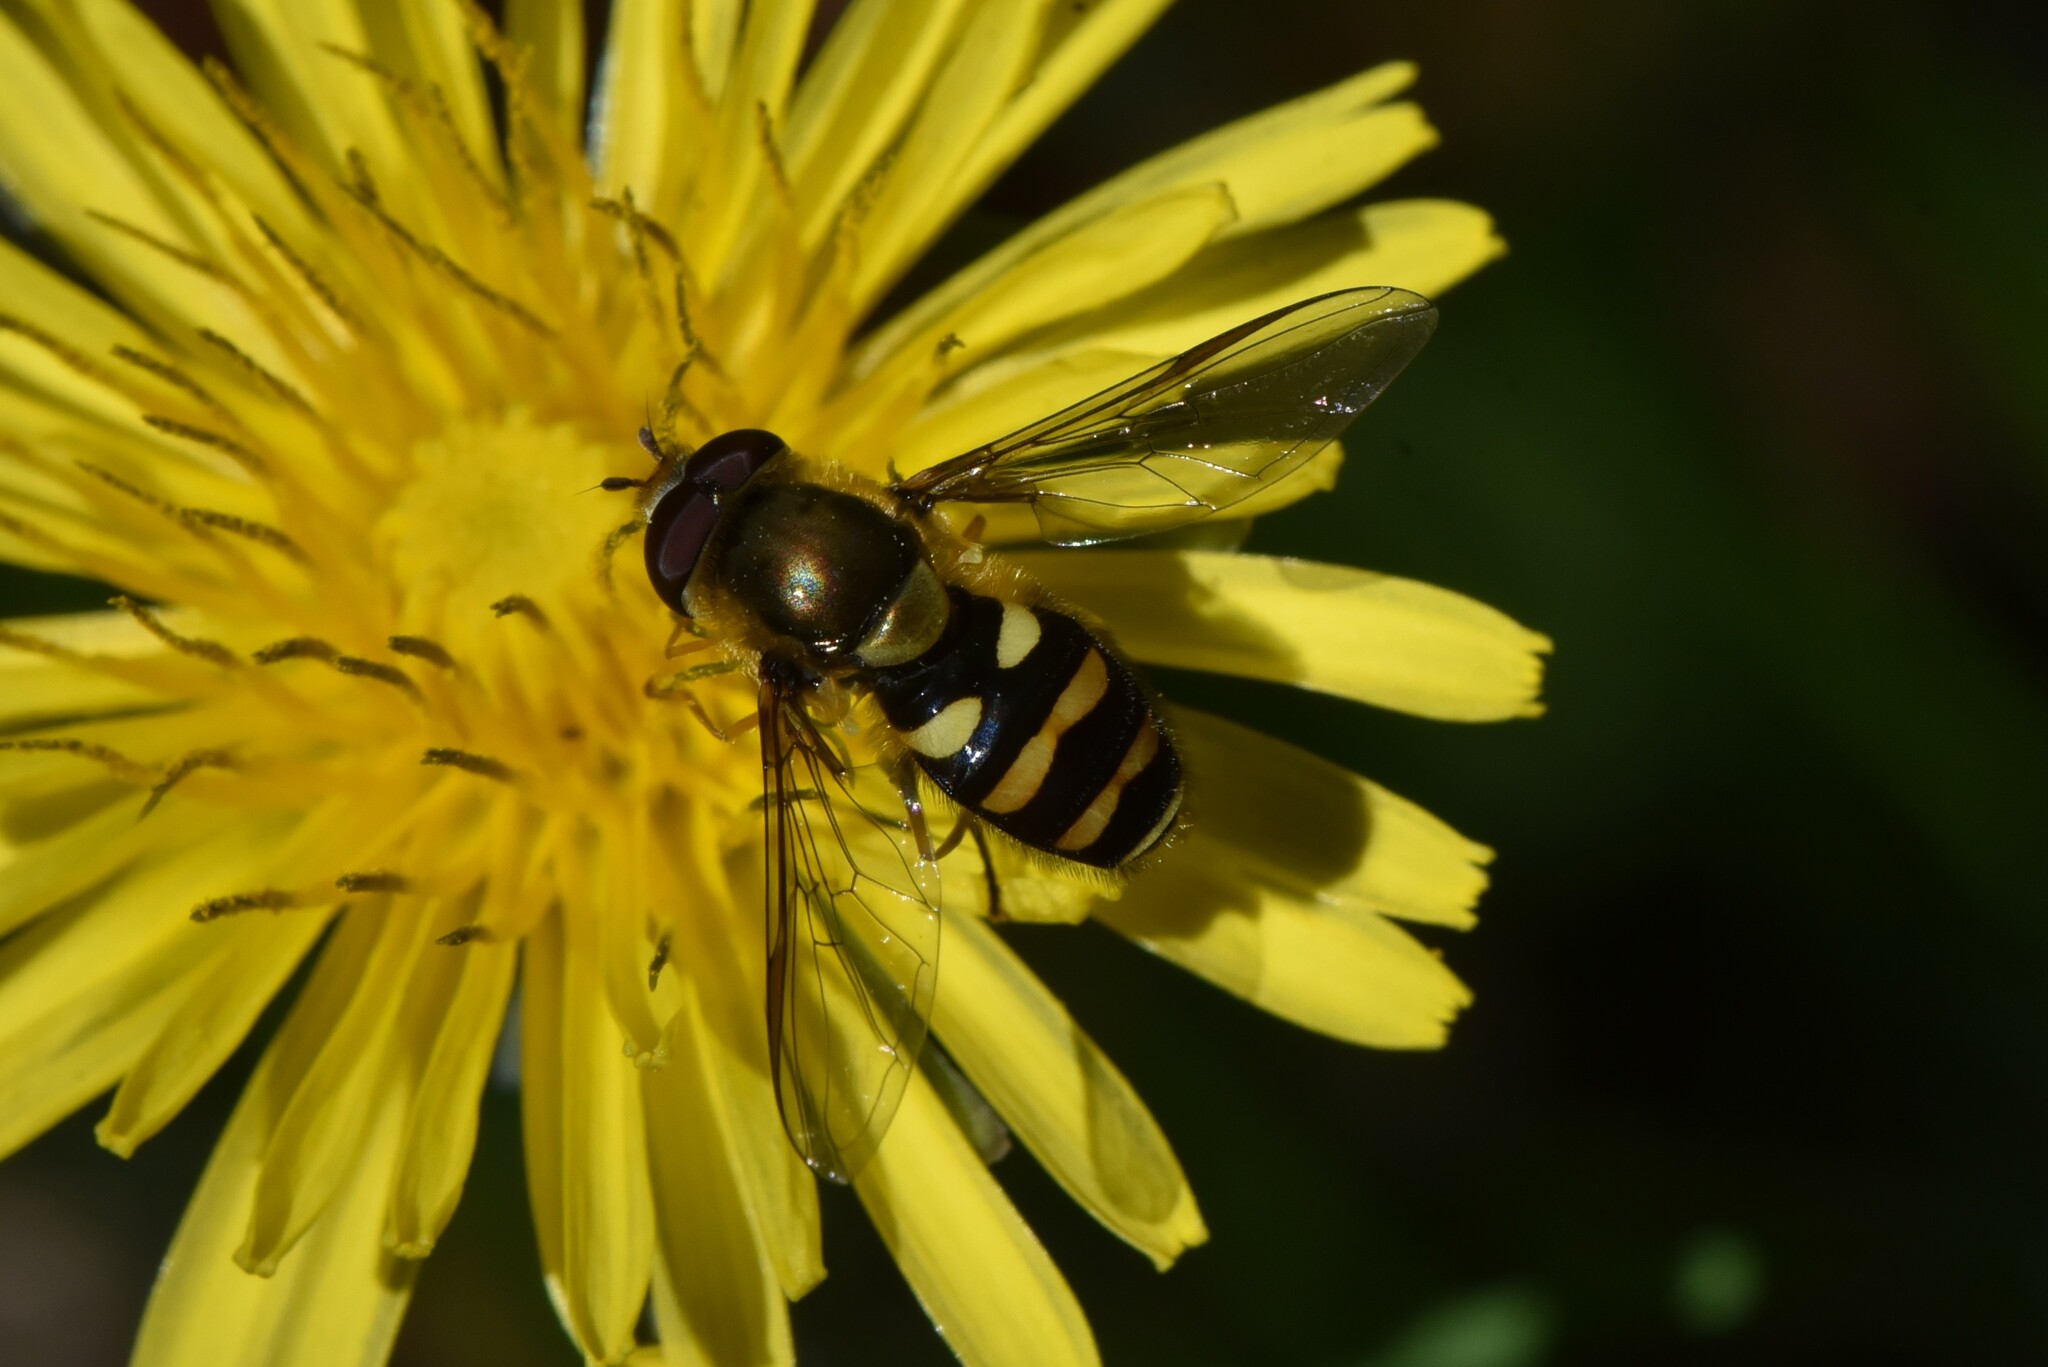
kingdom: Animalia
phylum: Arthropoda
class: Insecta
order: Diptera
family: Syrphidae
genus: Syrphus
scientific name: Syrphus opinator
